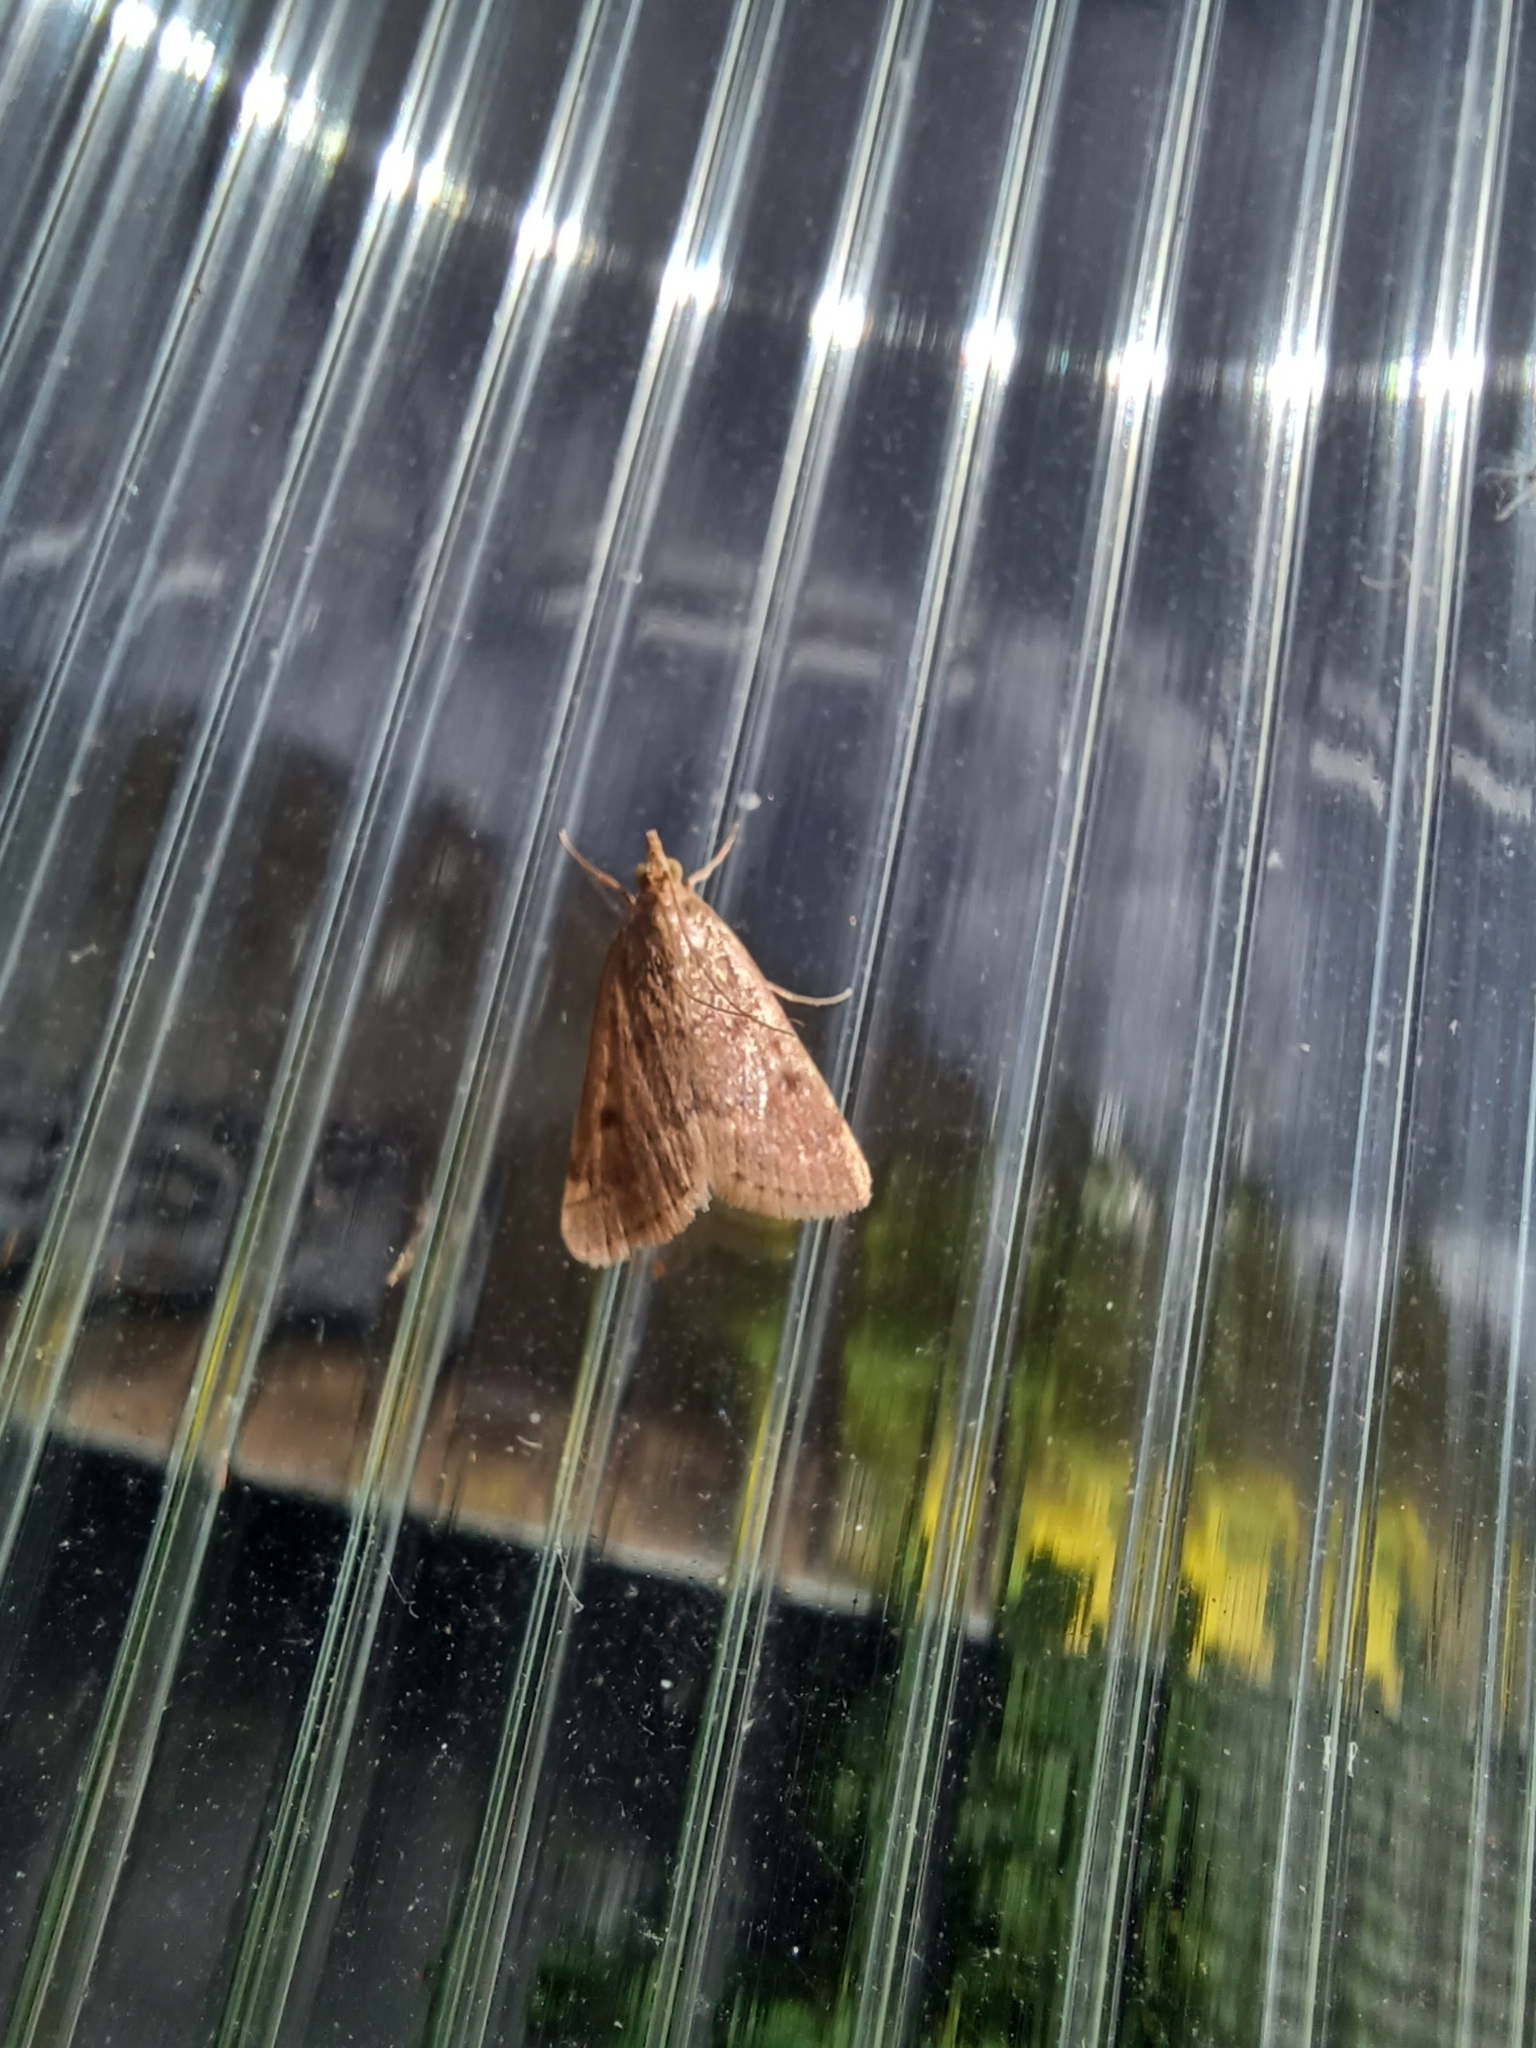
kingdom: Animalia
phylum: Arthropoda
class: Insecta
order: Lepidoptera
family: Crambidae
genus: Achyra
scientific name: Achyra rantalis
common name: Garden webworm
